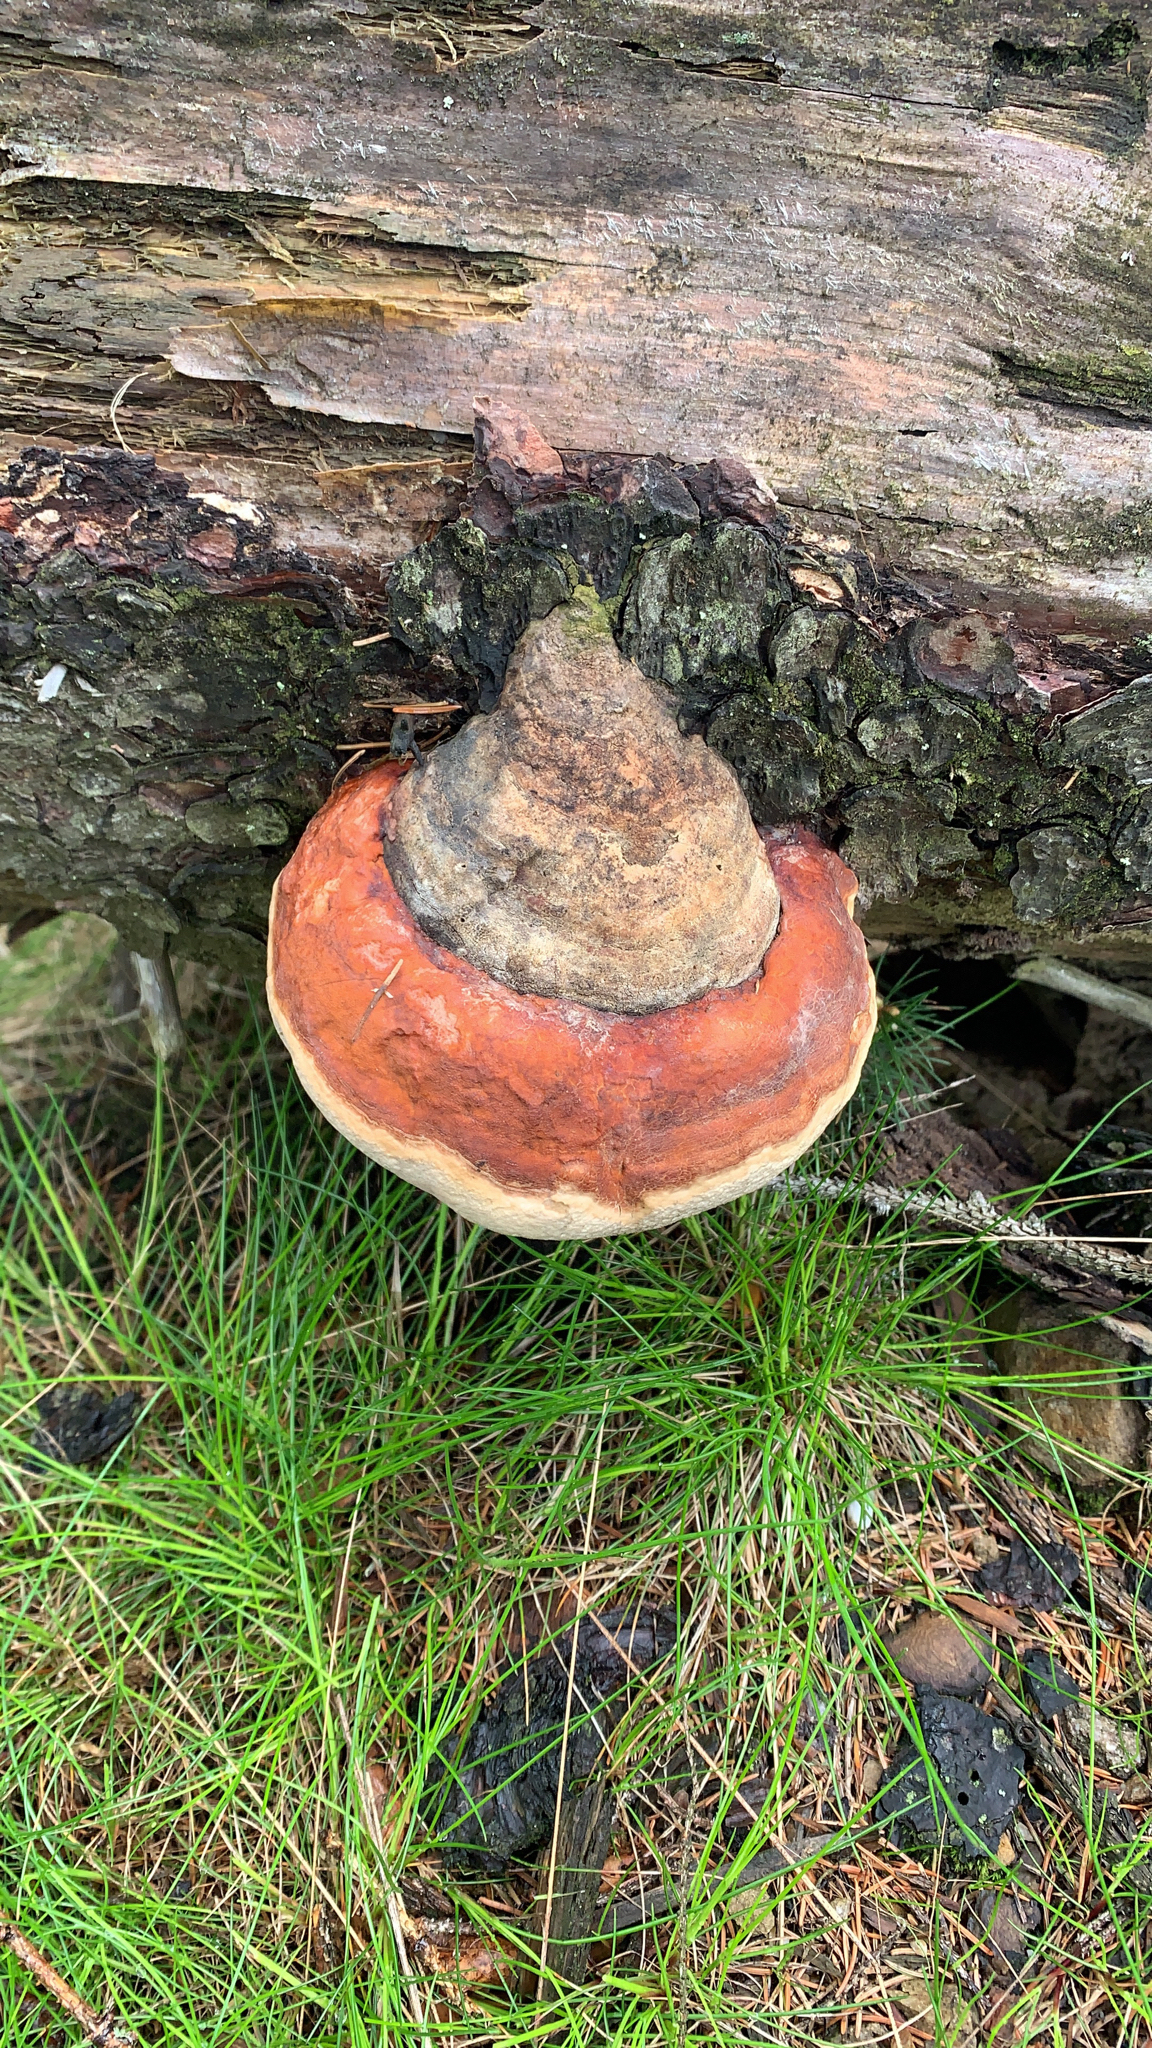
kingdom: Fungi
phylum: Basidiomycota
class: Agaricomycetes
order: Polyporales
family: Fomitopsidaceae
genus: Fomitopsis
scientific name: Fomitopsis pinicola
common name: Red-belted bracket
